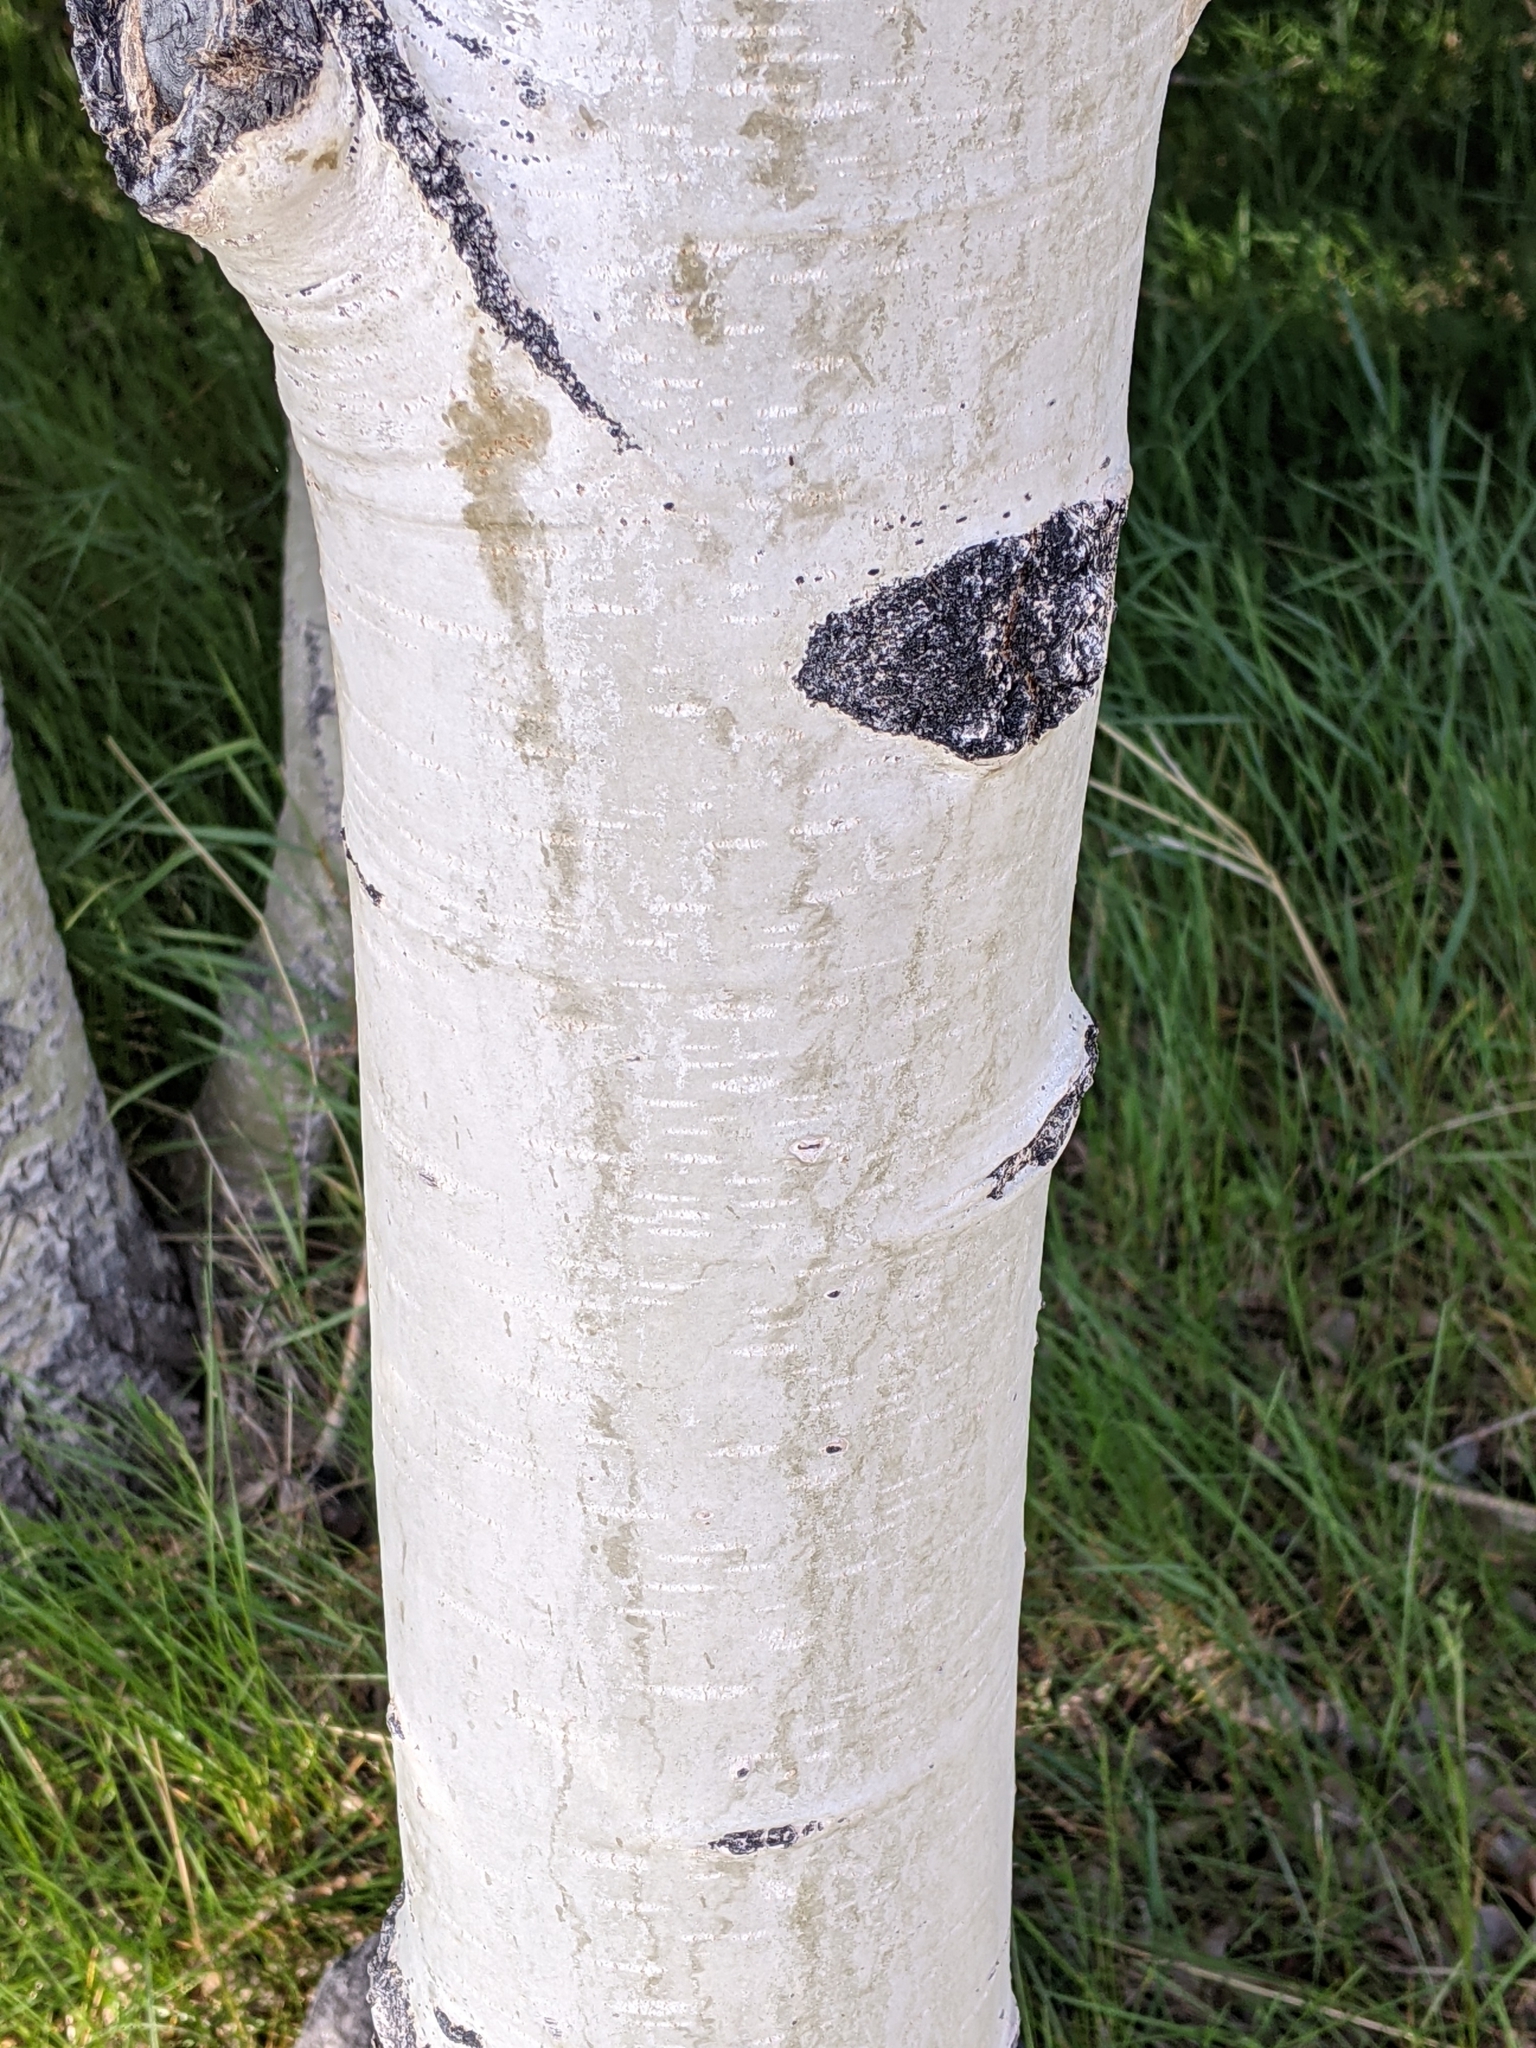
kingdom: Plantae
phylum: Tracheophyta
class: Magnoliopsida
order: Malpighiales
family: Salicaceae
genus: Populus
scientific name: Populus tremuloides
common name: Quaking aspen
